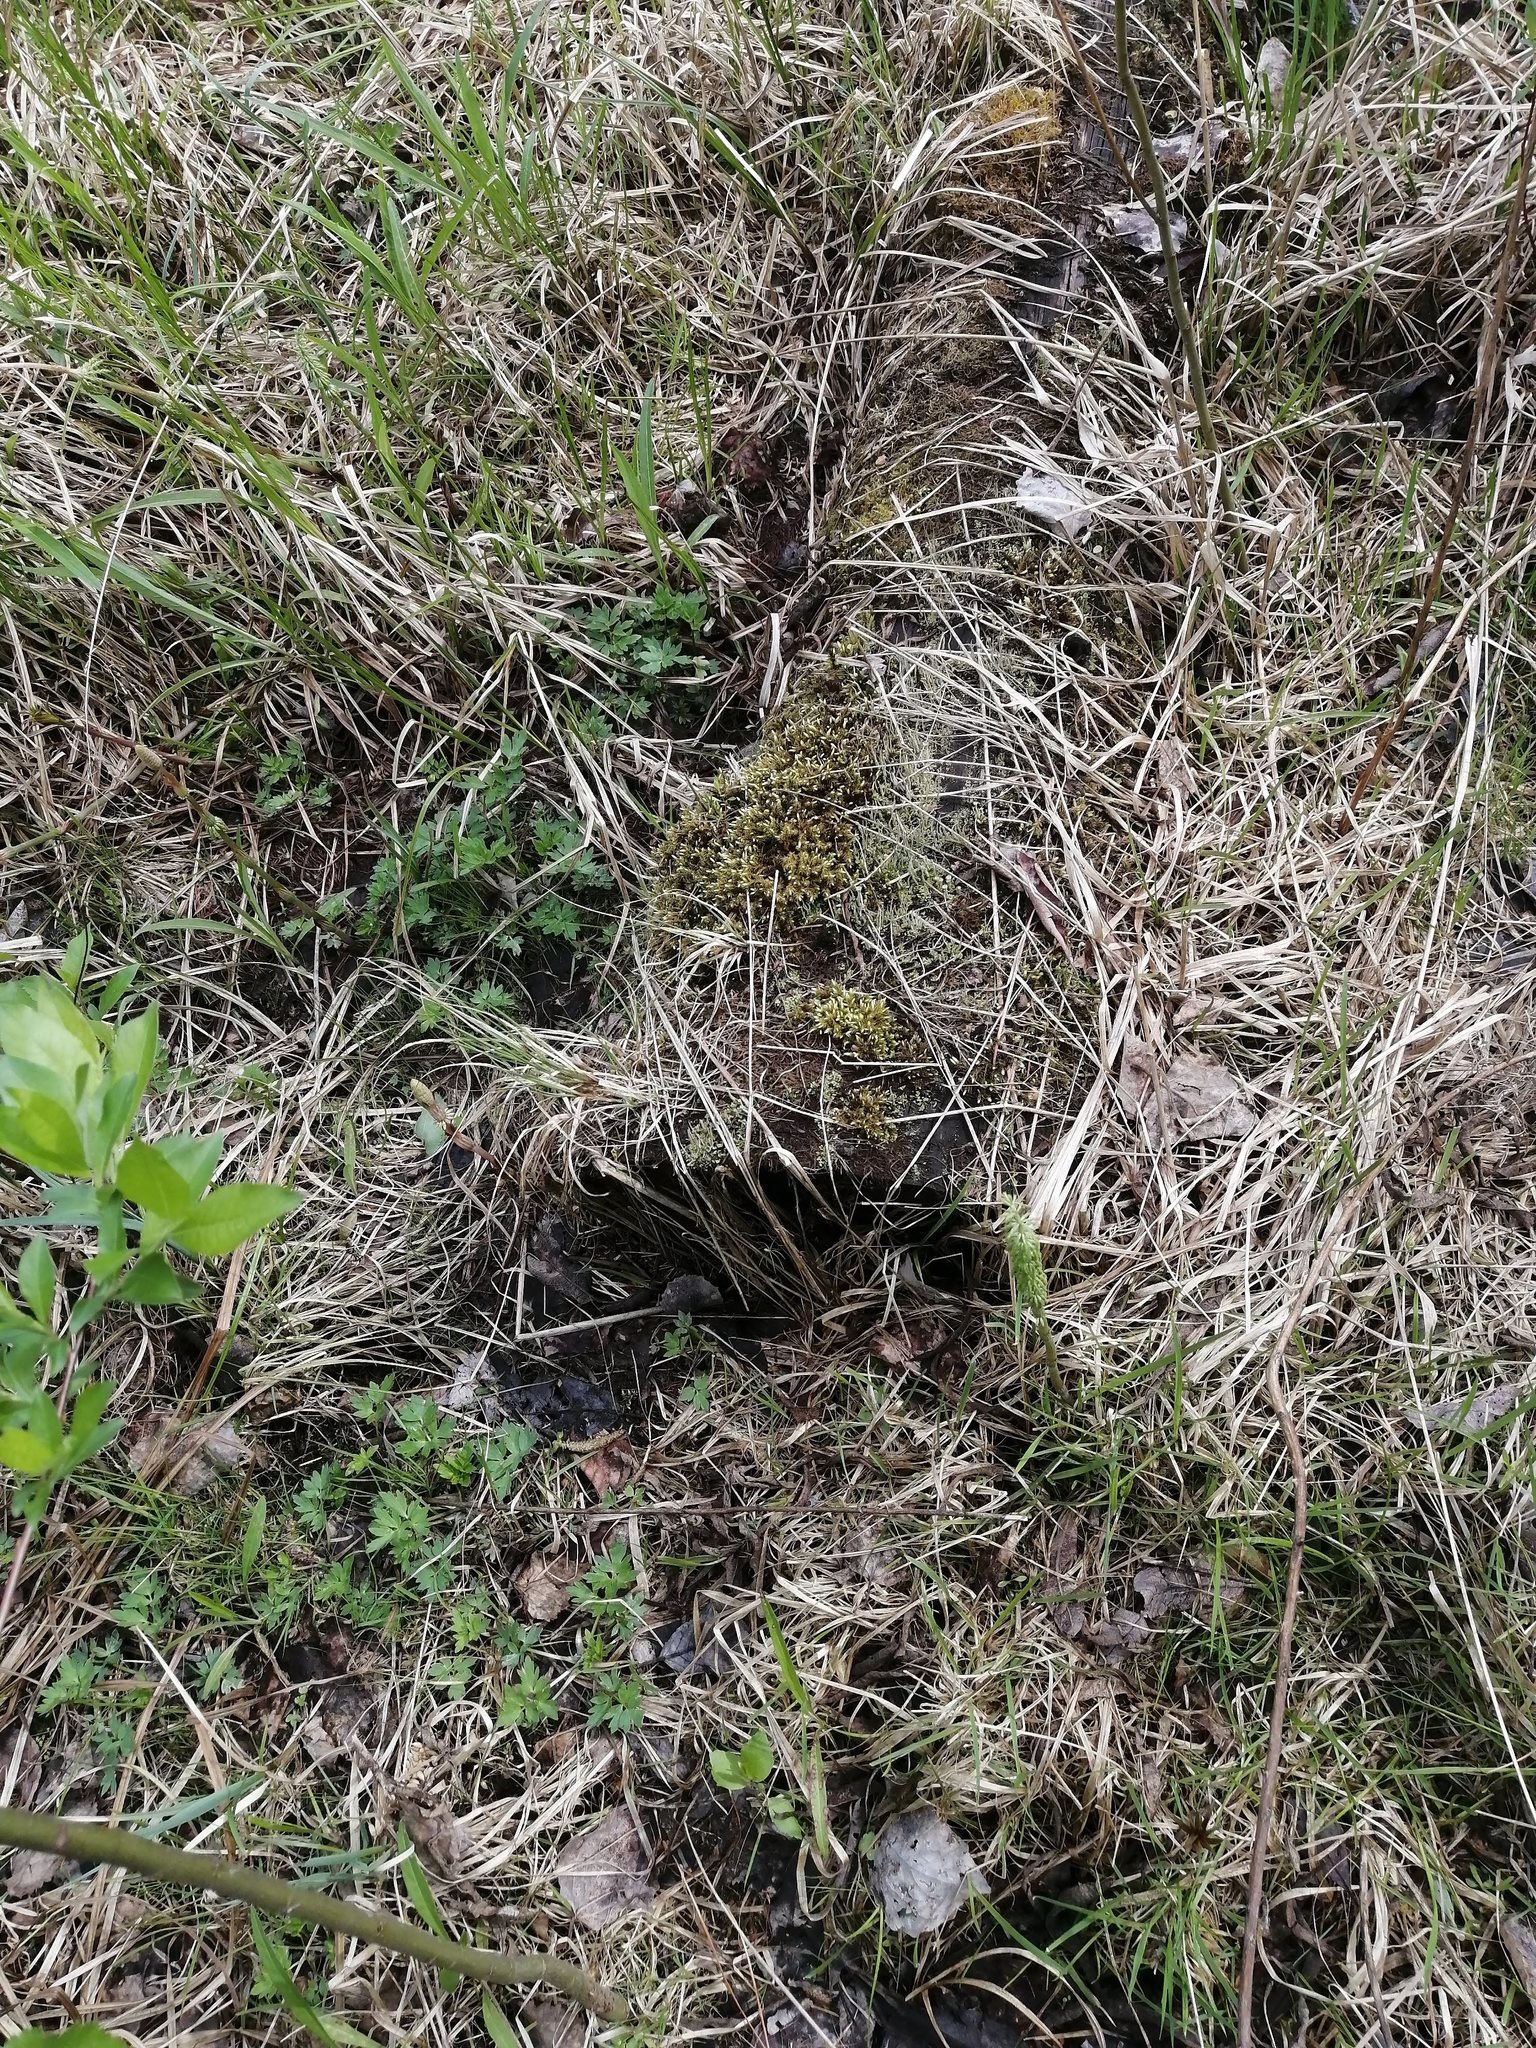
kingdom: Plantae
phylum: Bryophyta
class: Bryopsida
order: Aulacomniales
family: Aulacomniaceae
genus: Aulacomnium
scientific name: Aulacomnium palustre
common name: Bog groove-moss
